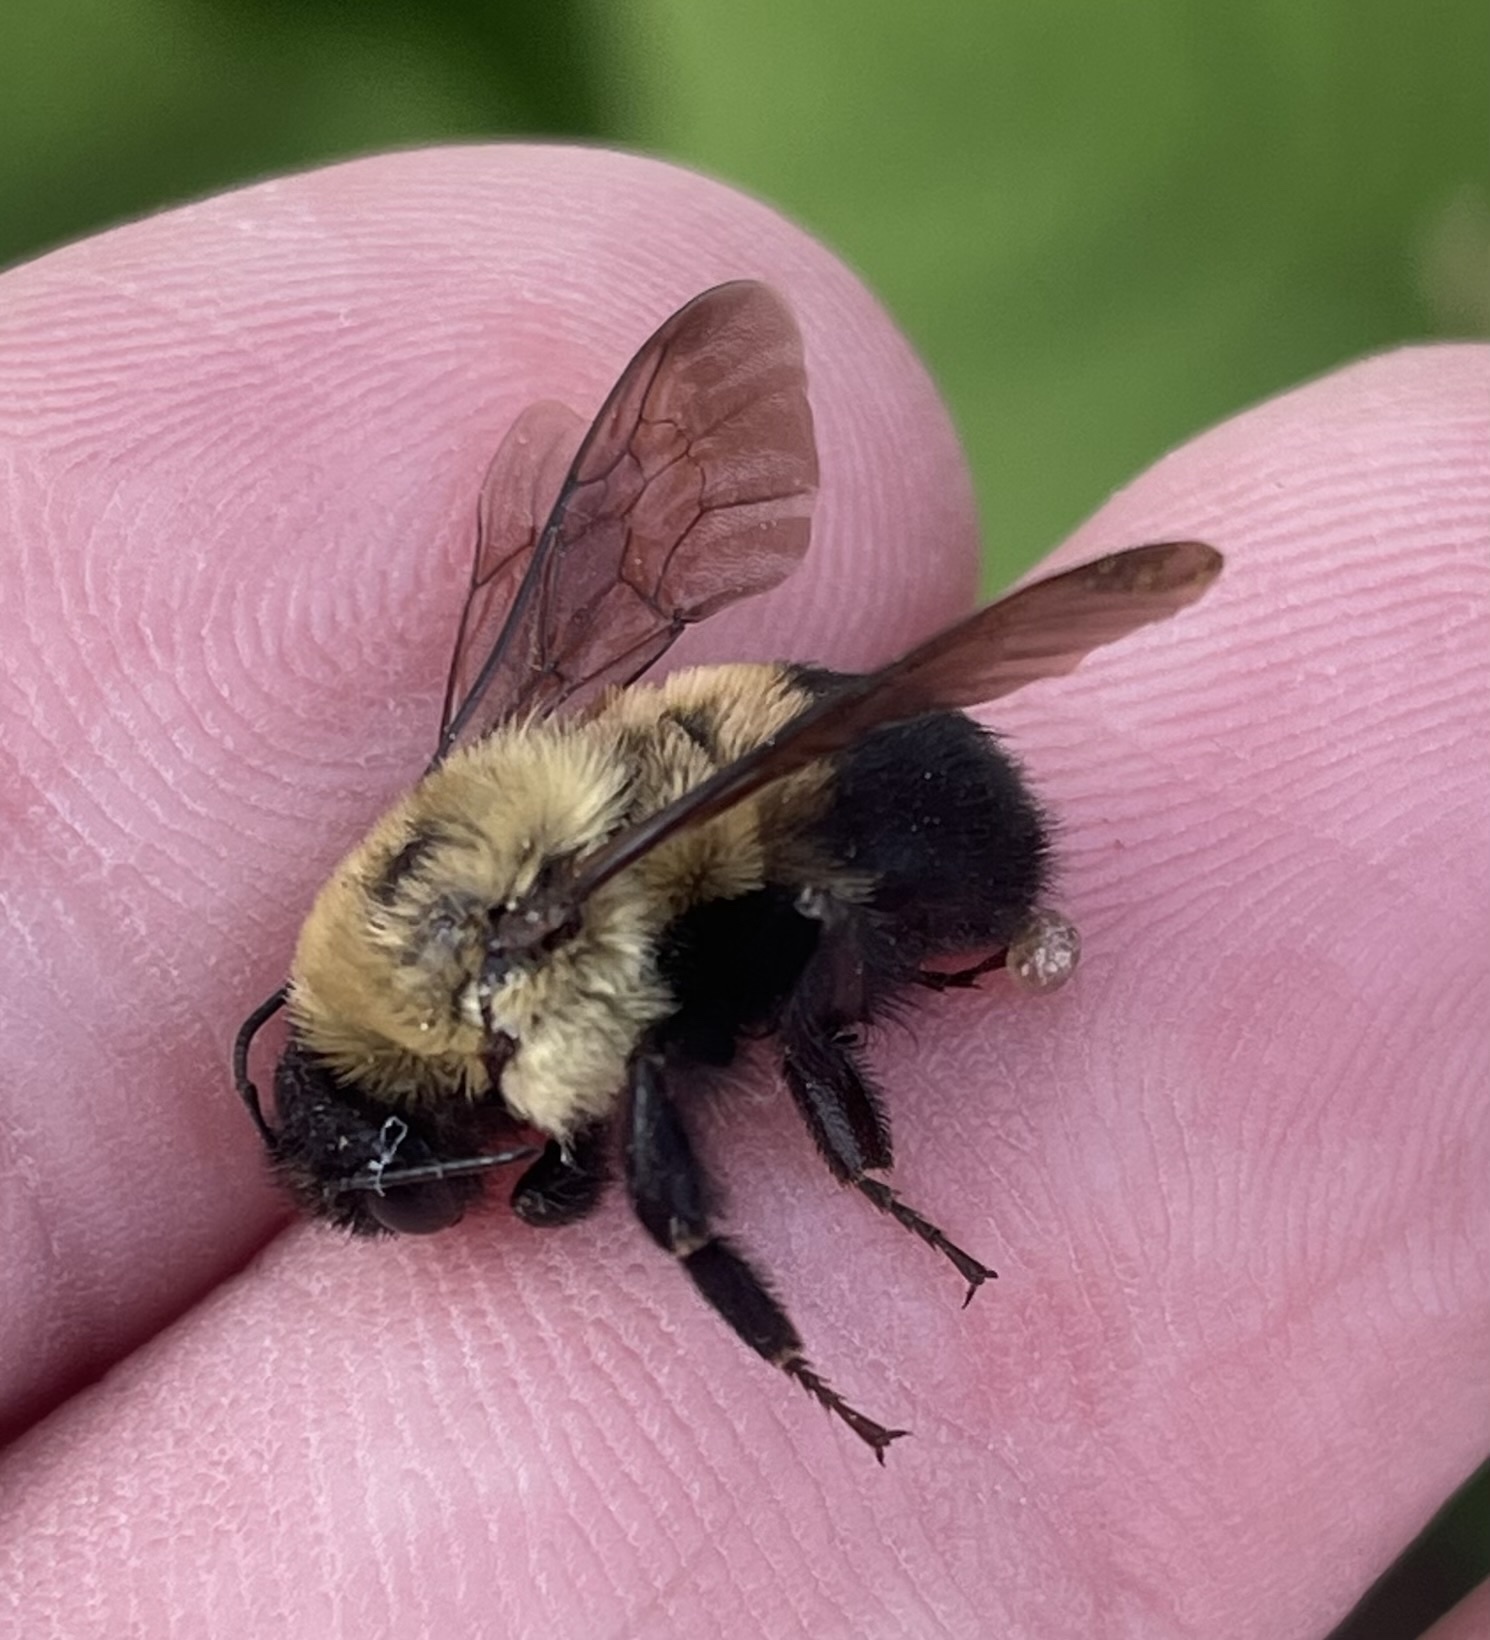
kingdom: Animalia
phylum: Arthropoda
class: Insecta
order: Hymenoptera
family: Apidae
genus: Bombus
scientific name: Bombus griseocollis
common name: Brown-belted bumble bee
